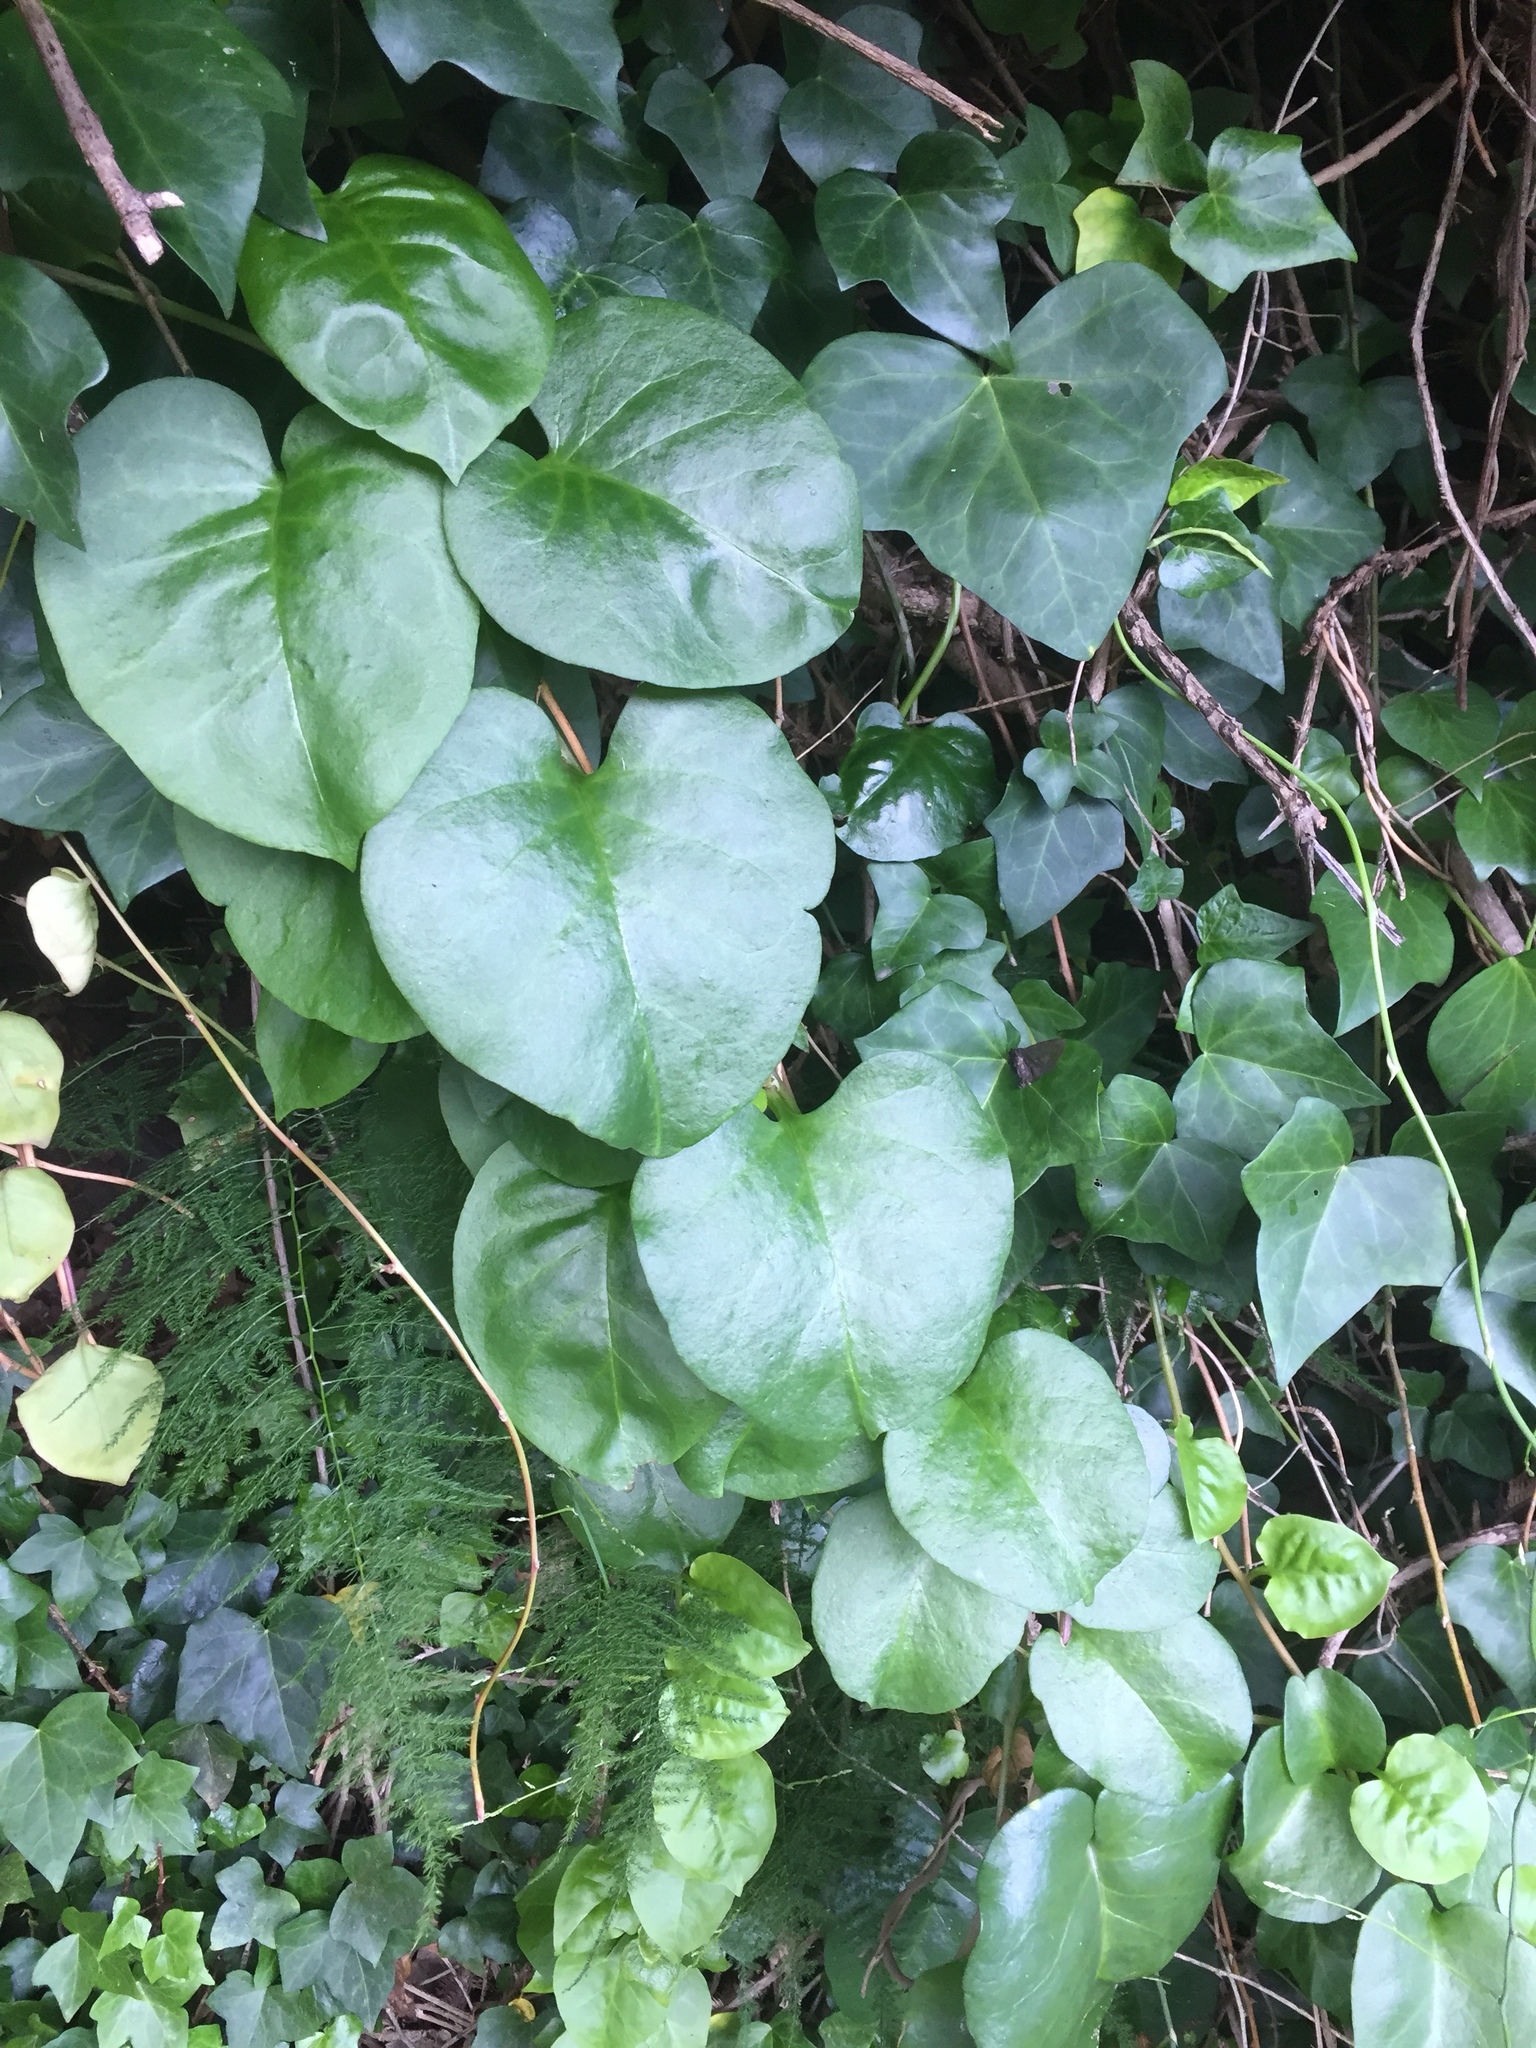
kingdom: Plantae
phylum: Tracheophyta
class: Magnoliopsida
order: Apiales
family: Araliaceae
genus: Hedera
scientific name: Hedera canariensis
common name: Madeira ivy
